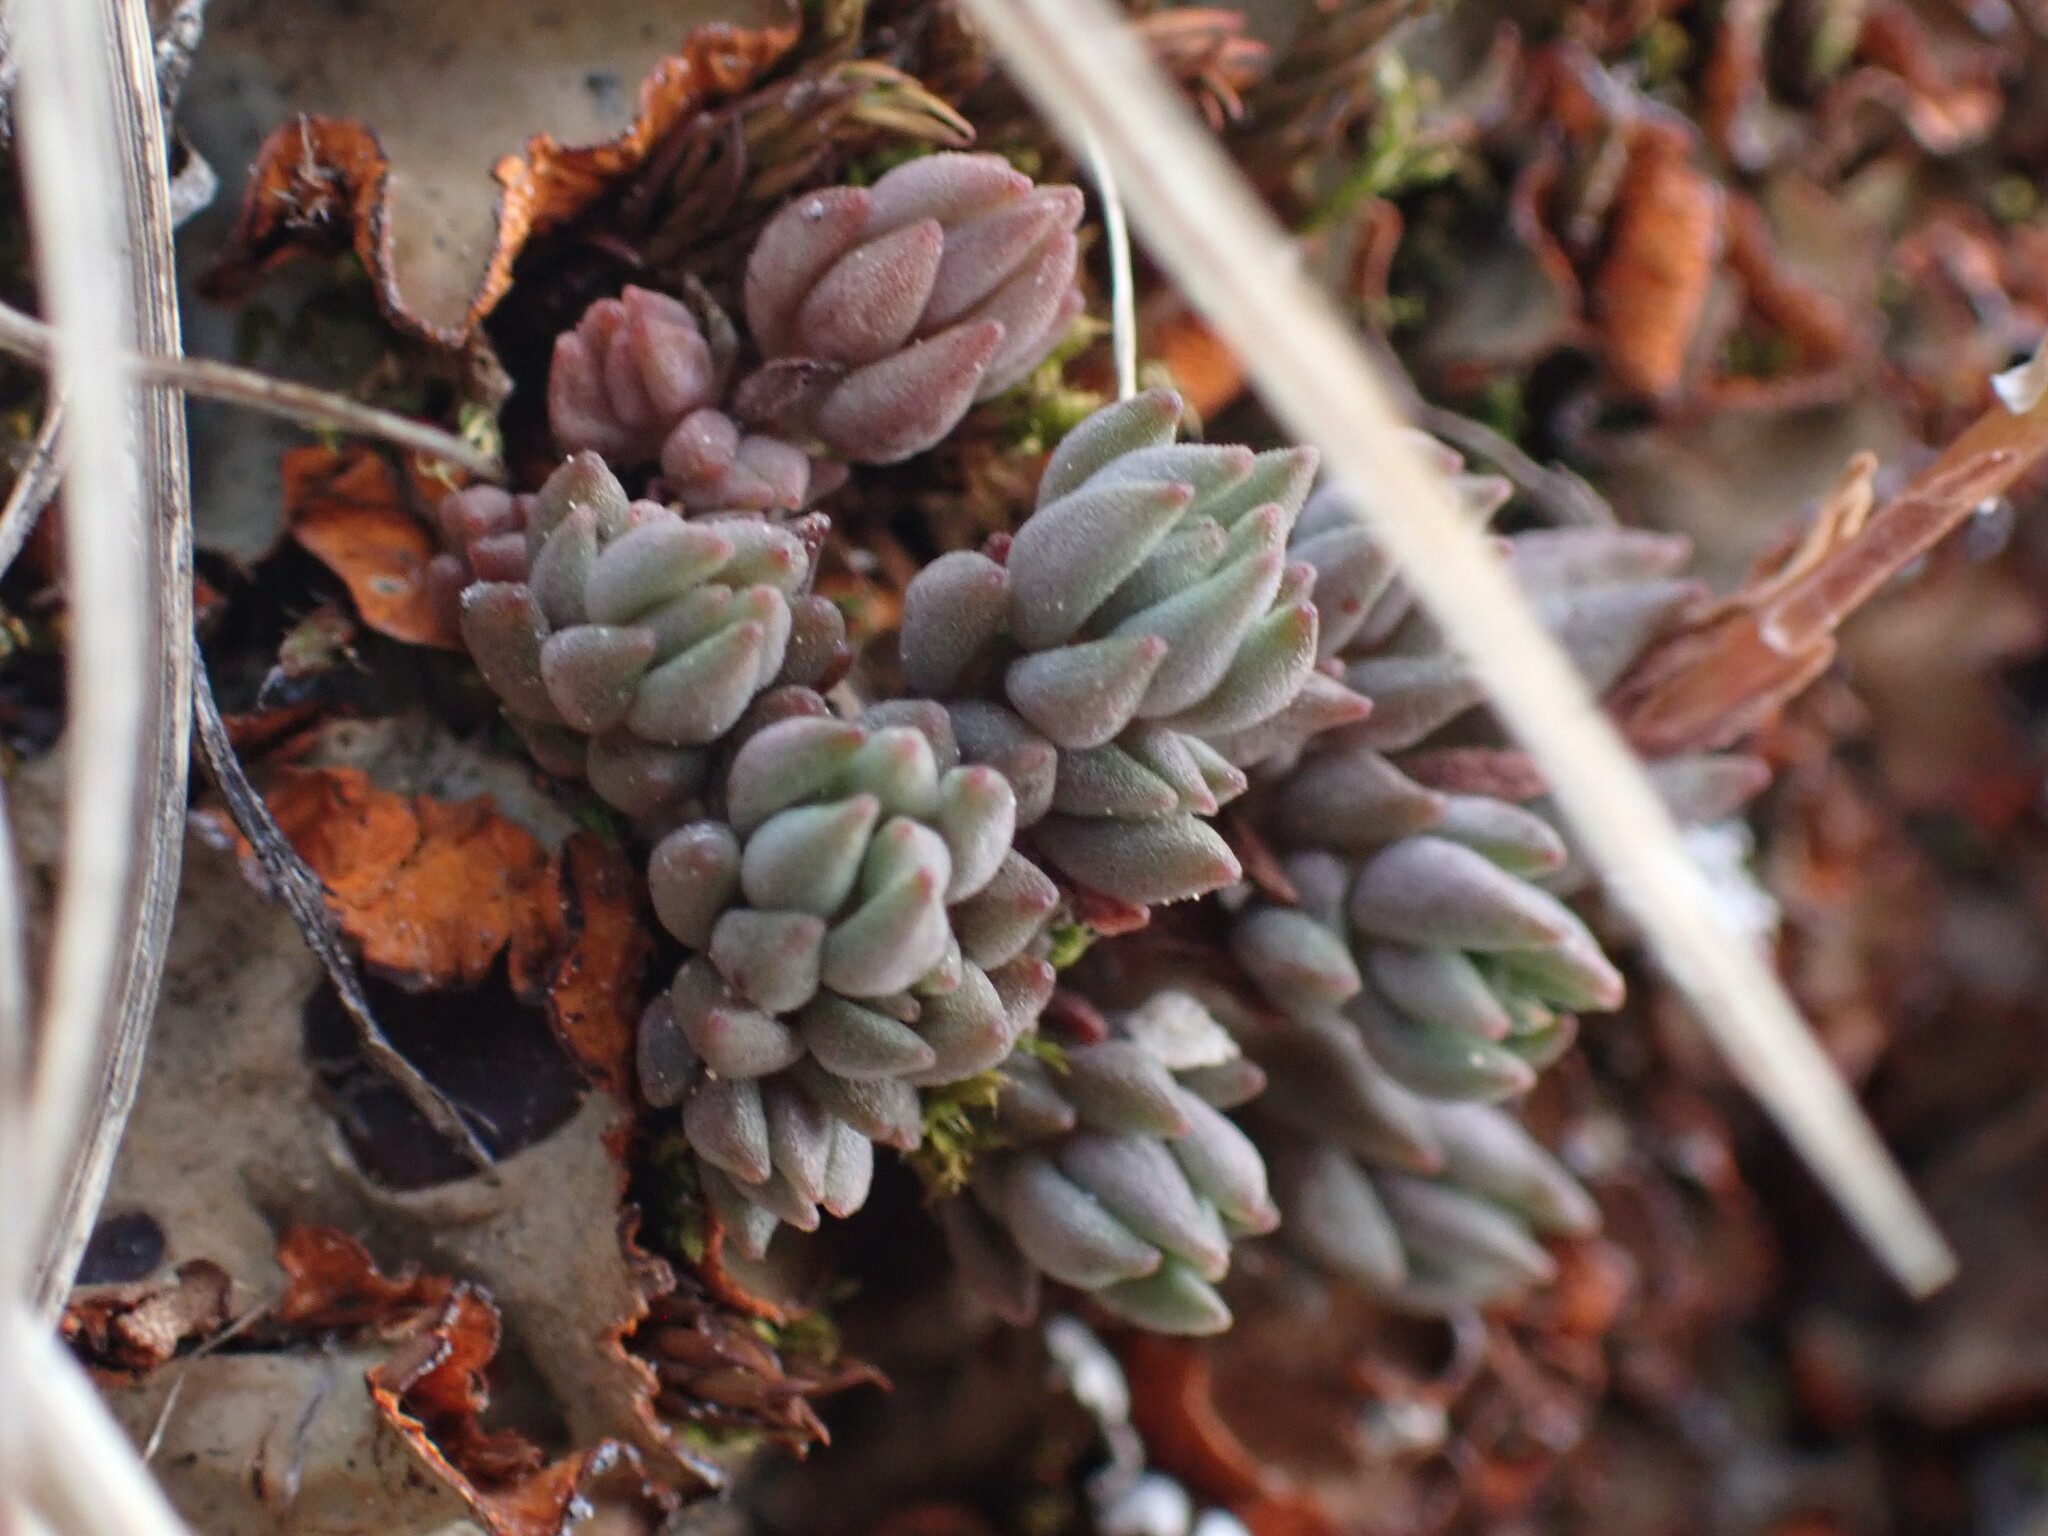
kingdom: Plantae
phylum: Tracheophyta
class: Magnoliopsida
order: Saxifragales
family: Crassulaceae
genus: Sedum
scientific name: Sedum lanceolatum
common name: Common stonecrop
